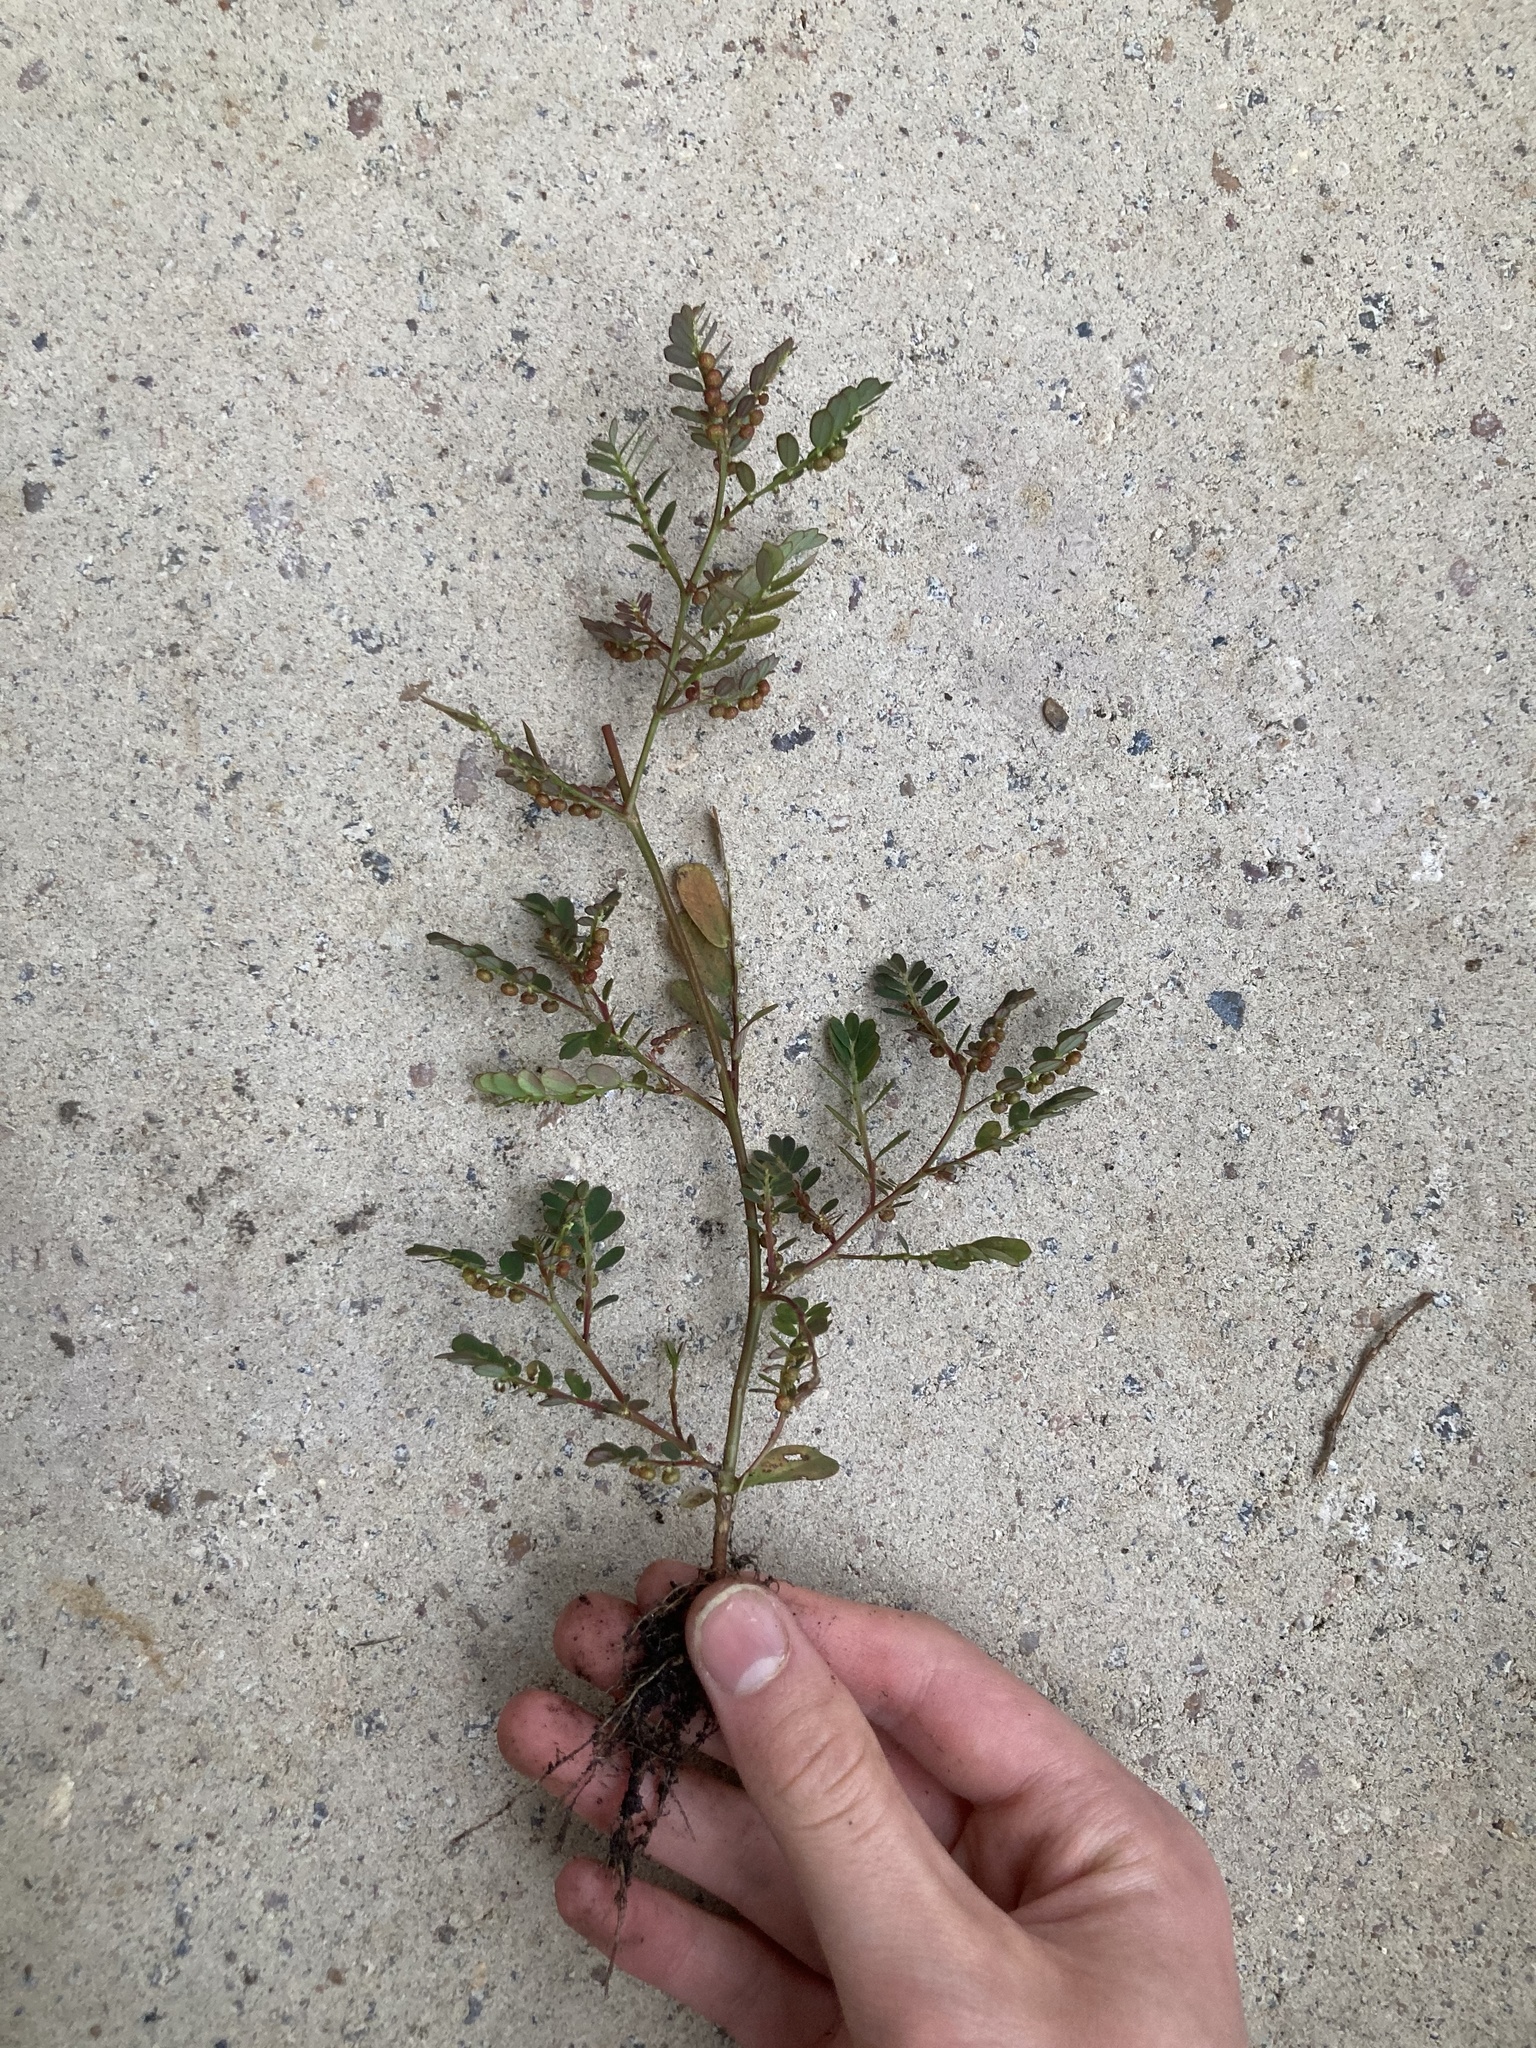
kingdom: Plantae
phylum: Tracheophyta
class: Magnoliopsida
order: Malpighiales
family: Phyllanthaceae
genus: Phyllanthus
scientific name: Phyllanthus urinaria
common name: Chamber bitter
